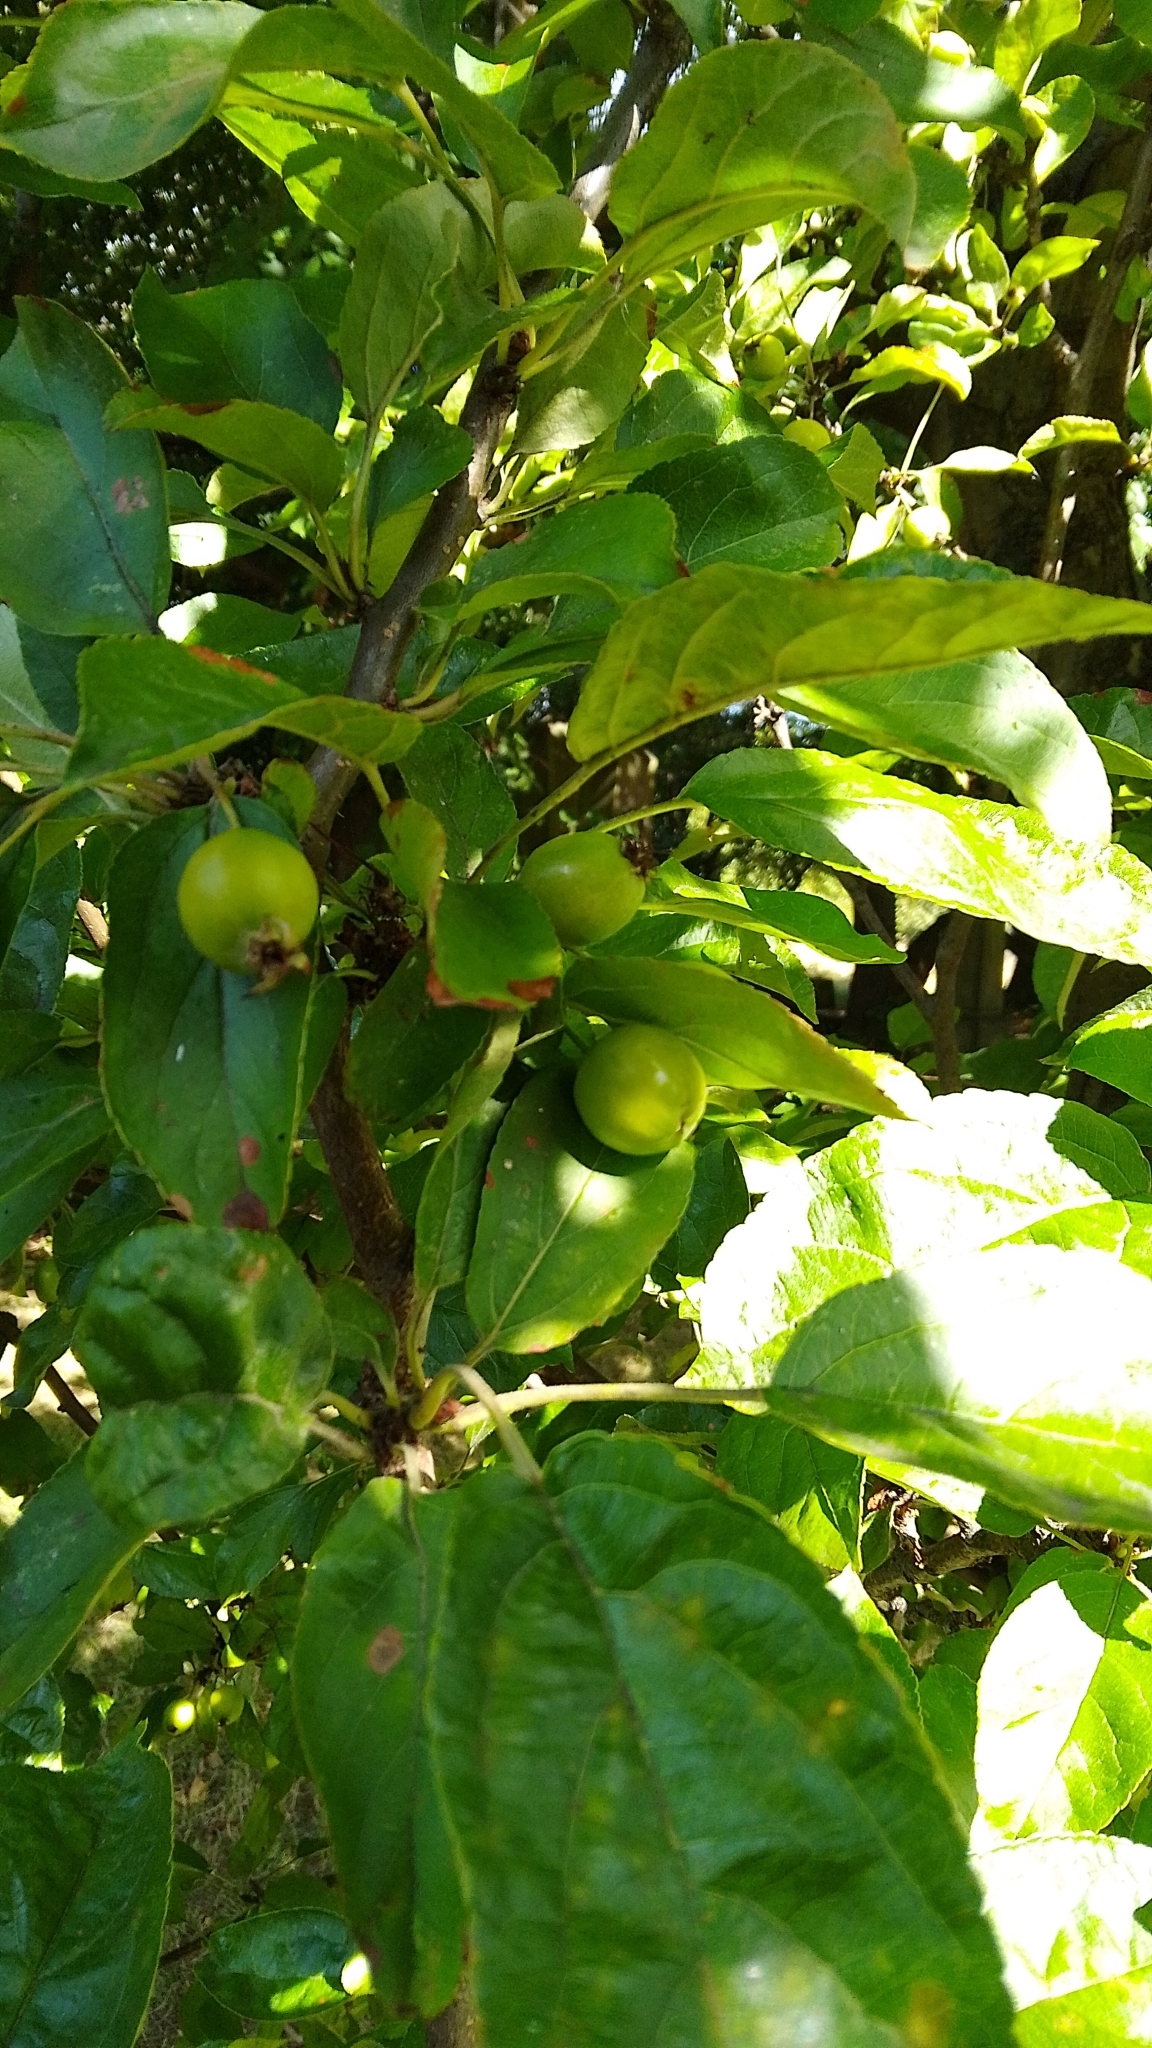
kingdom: Plantae
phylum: Tracheophyta
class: Magnoliopsida
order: Rosales
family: Rosaceae
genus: Malus
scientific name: Malus domestica
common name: Apple
